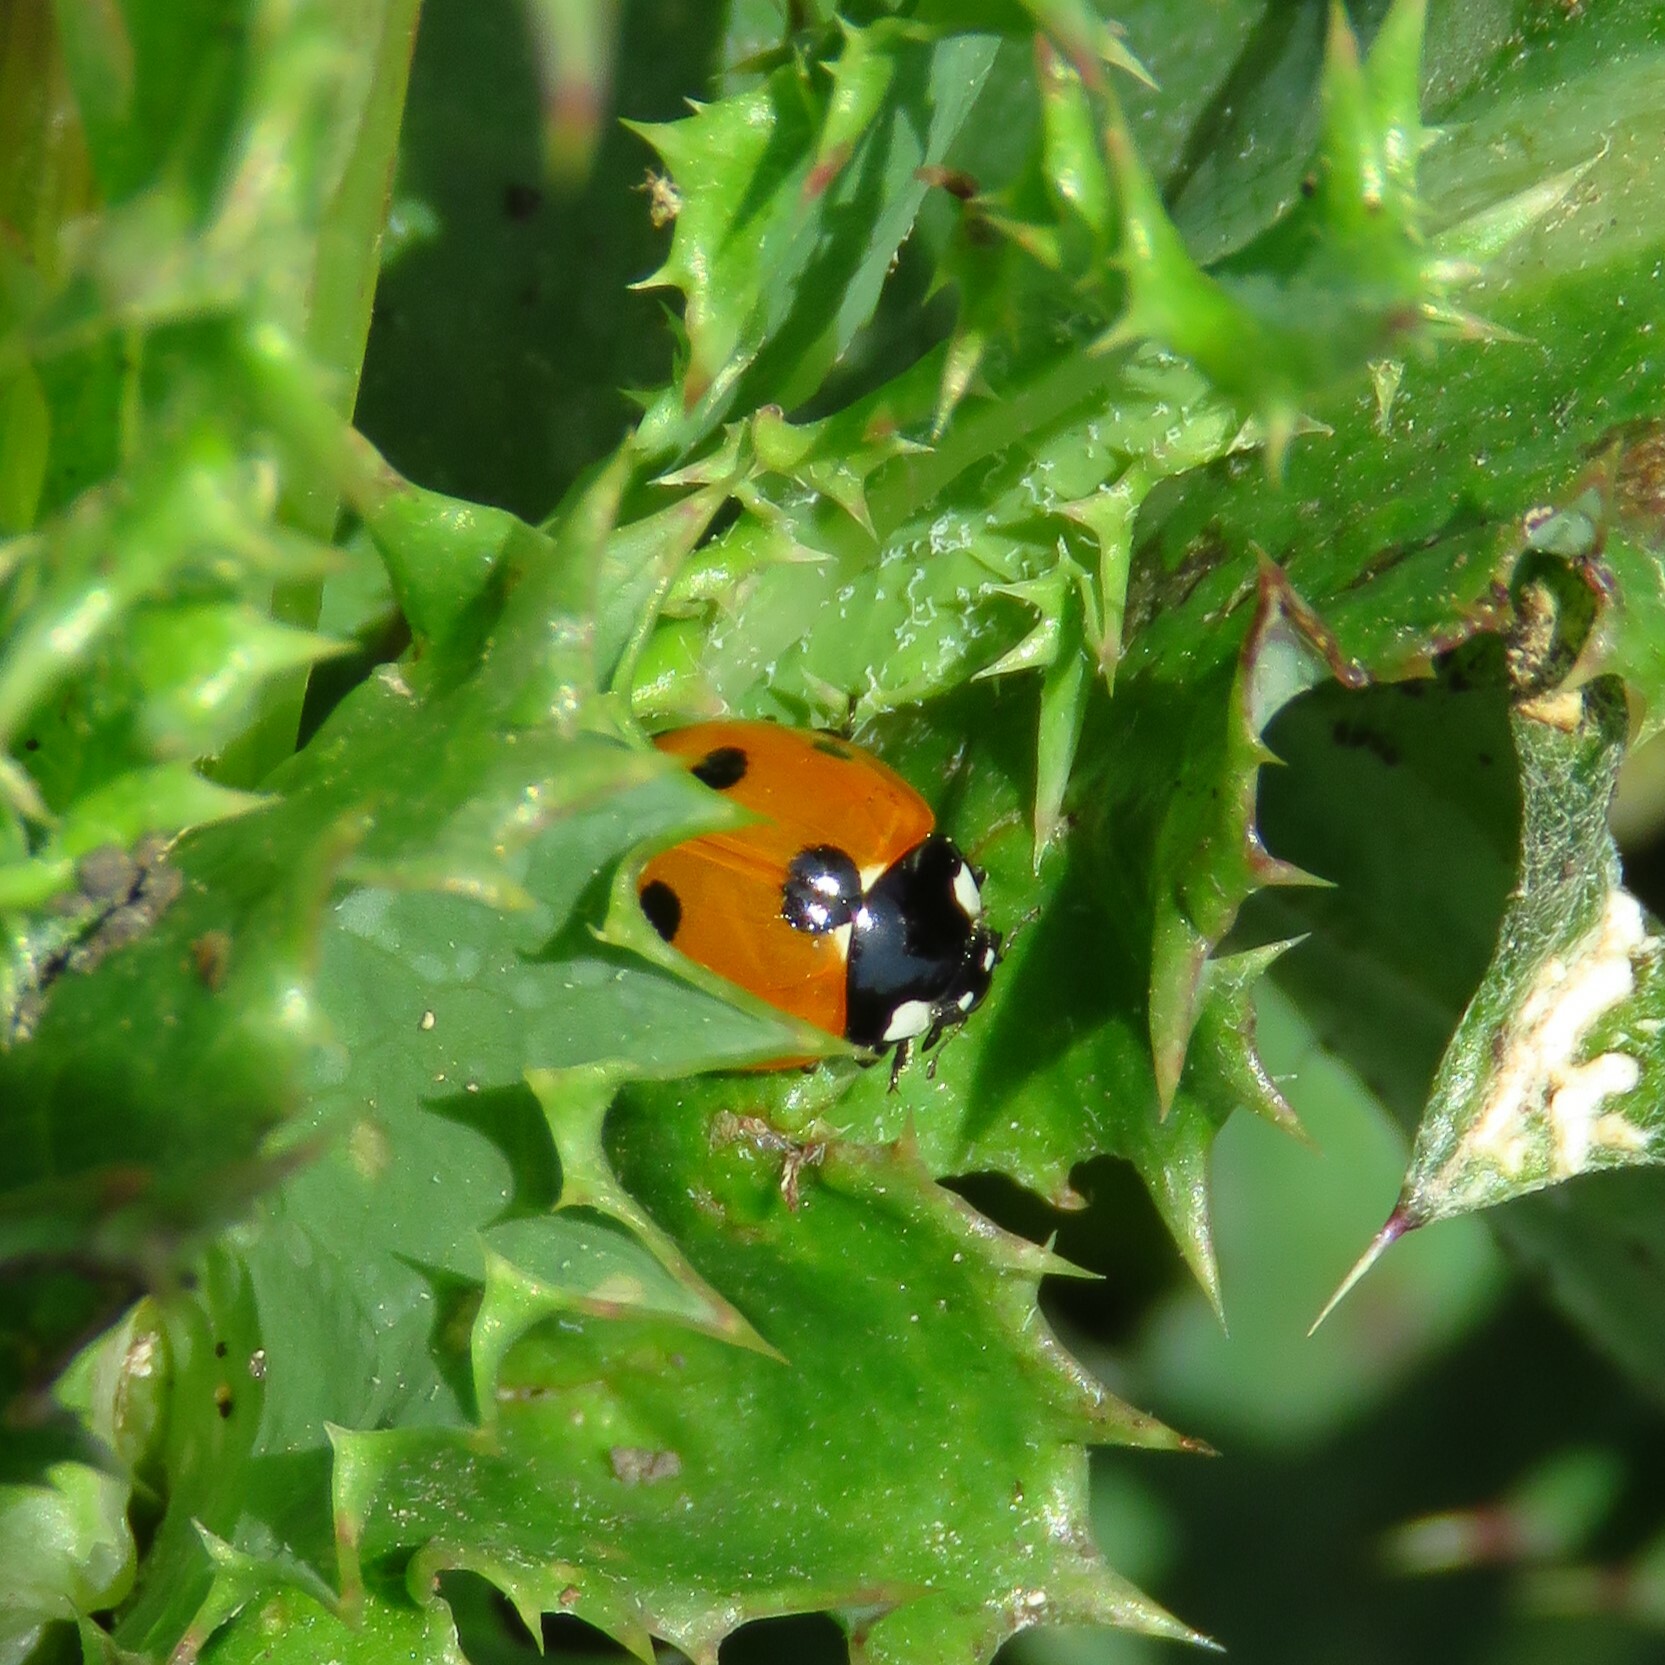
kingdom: Animalia
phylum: Arthropoda
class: Insecta
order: Coleoptera
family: Coccinellidae
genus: Coccinella
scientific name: Coccinella septempunctata
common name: Sevenspotted lady beetle
